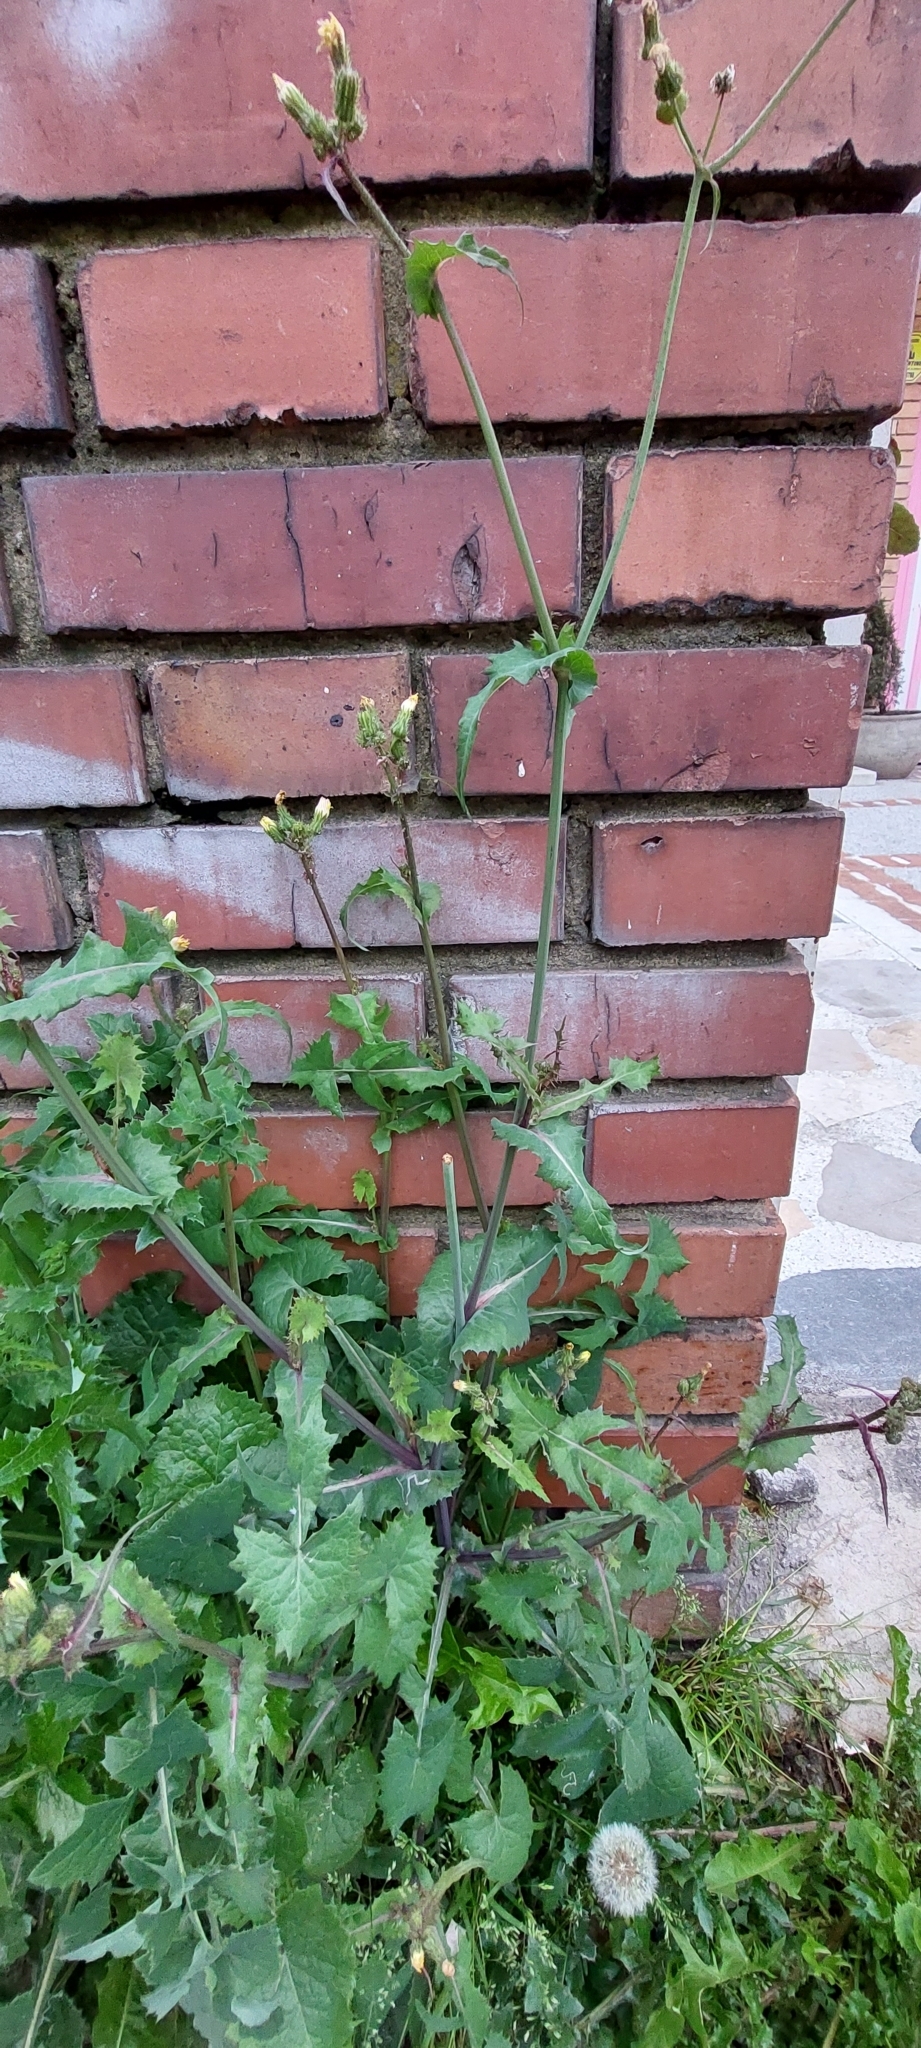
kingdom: Plantae
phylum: Tracheophyta
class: Magnoliopsida
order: Asterales
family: Asteraceae
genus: Sonchus
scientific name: Sonchus oleraceus
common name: Common sowthistle
